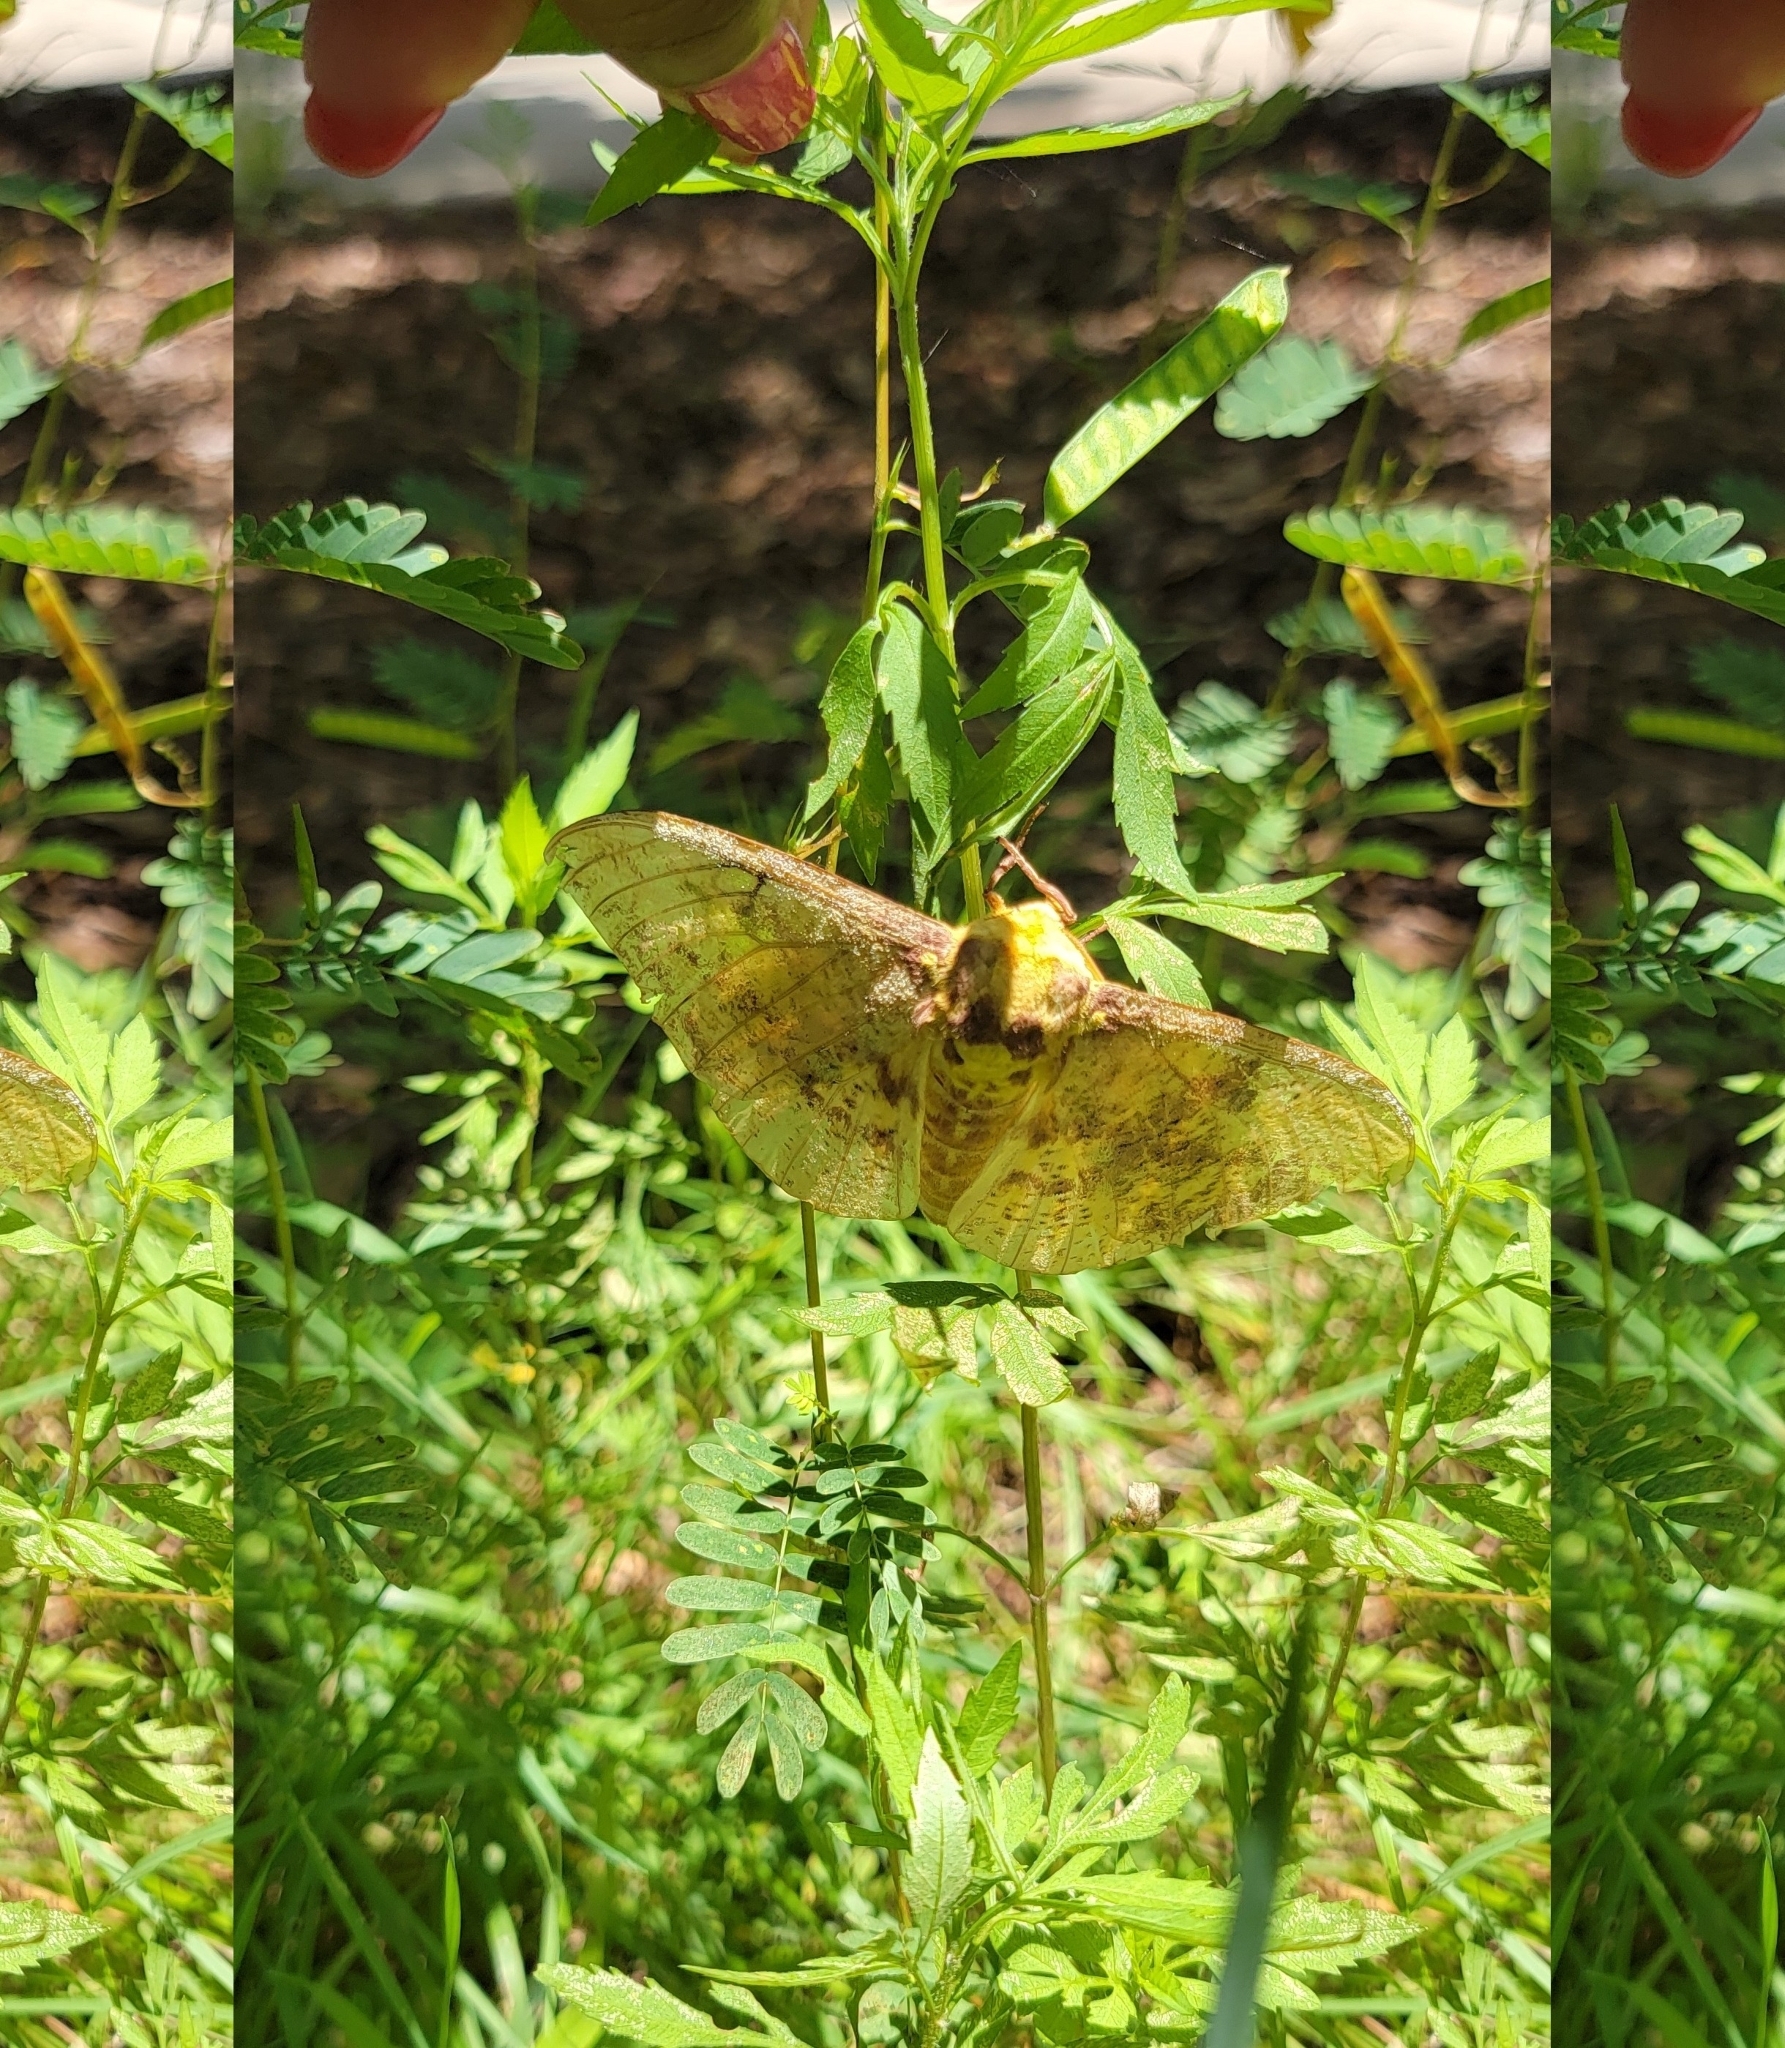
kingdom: Animalia
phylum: Arthropoda
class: Insecta
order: Lepidoptera
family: Saturniidae
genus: Eacles
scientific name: Eacles imperialis
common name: Imperial moth
